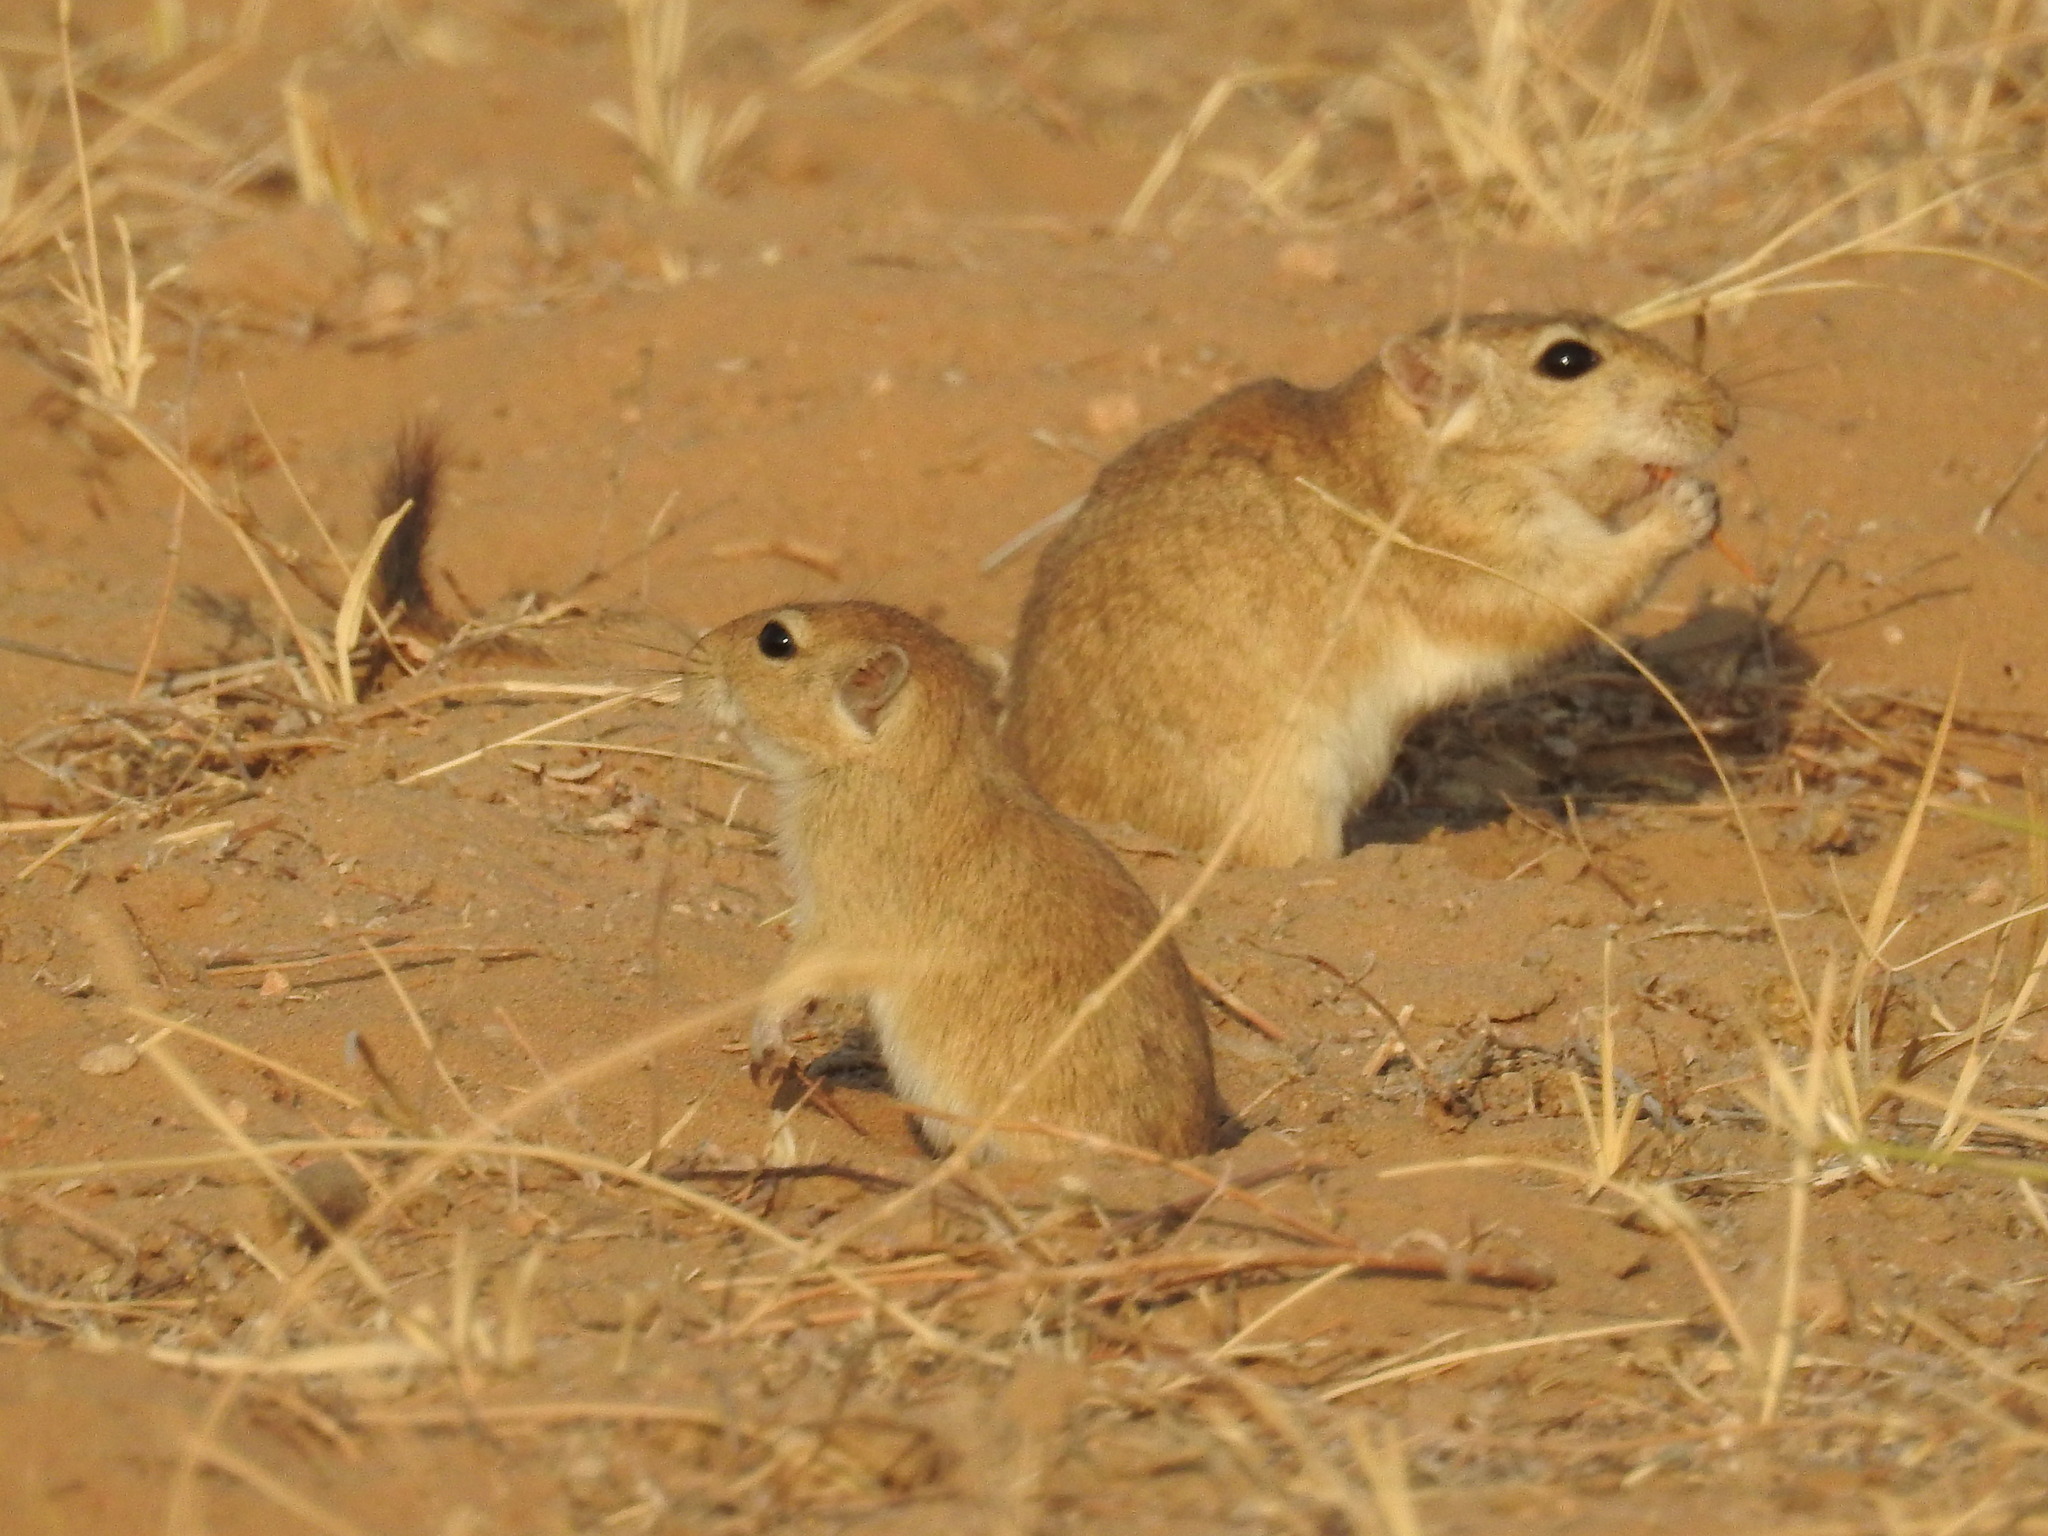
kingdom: Animalia
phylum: Chordata
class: Mammalia
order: Rodentia
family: Muridae
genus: Meriones
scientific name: Meriones hurrianae
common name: Indian desert jird
